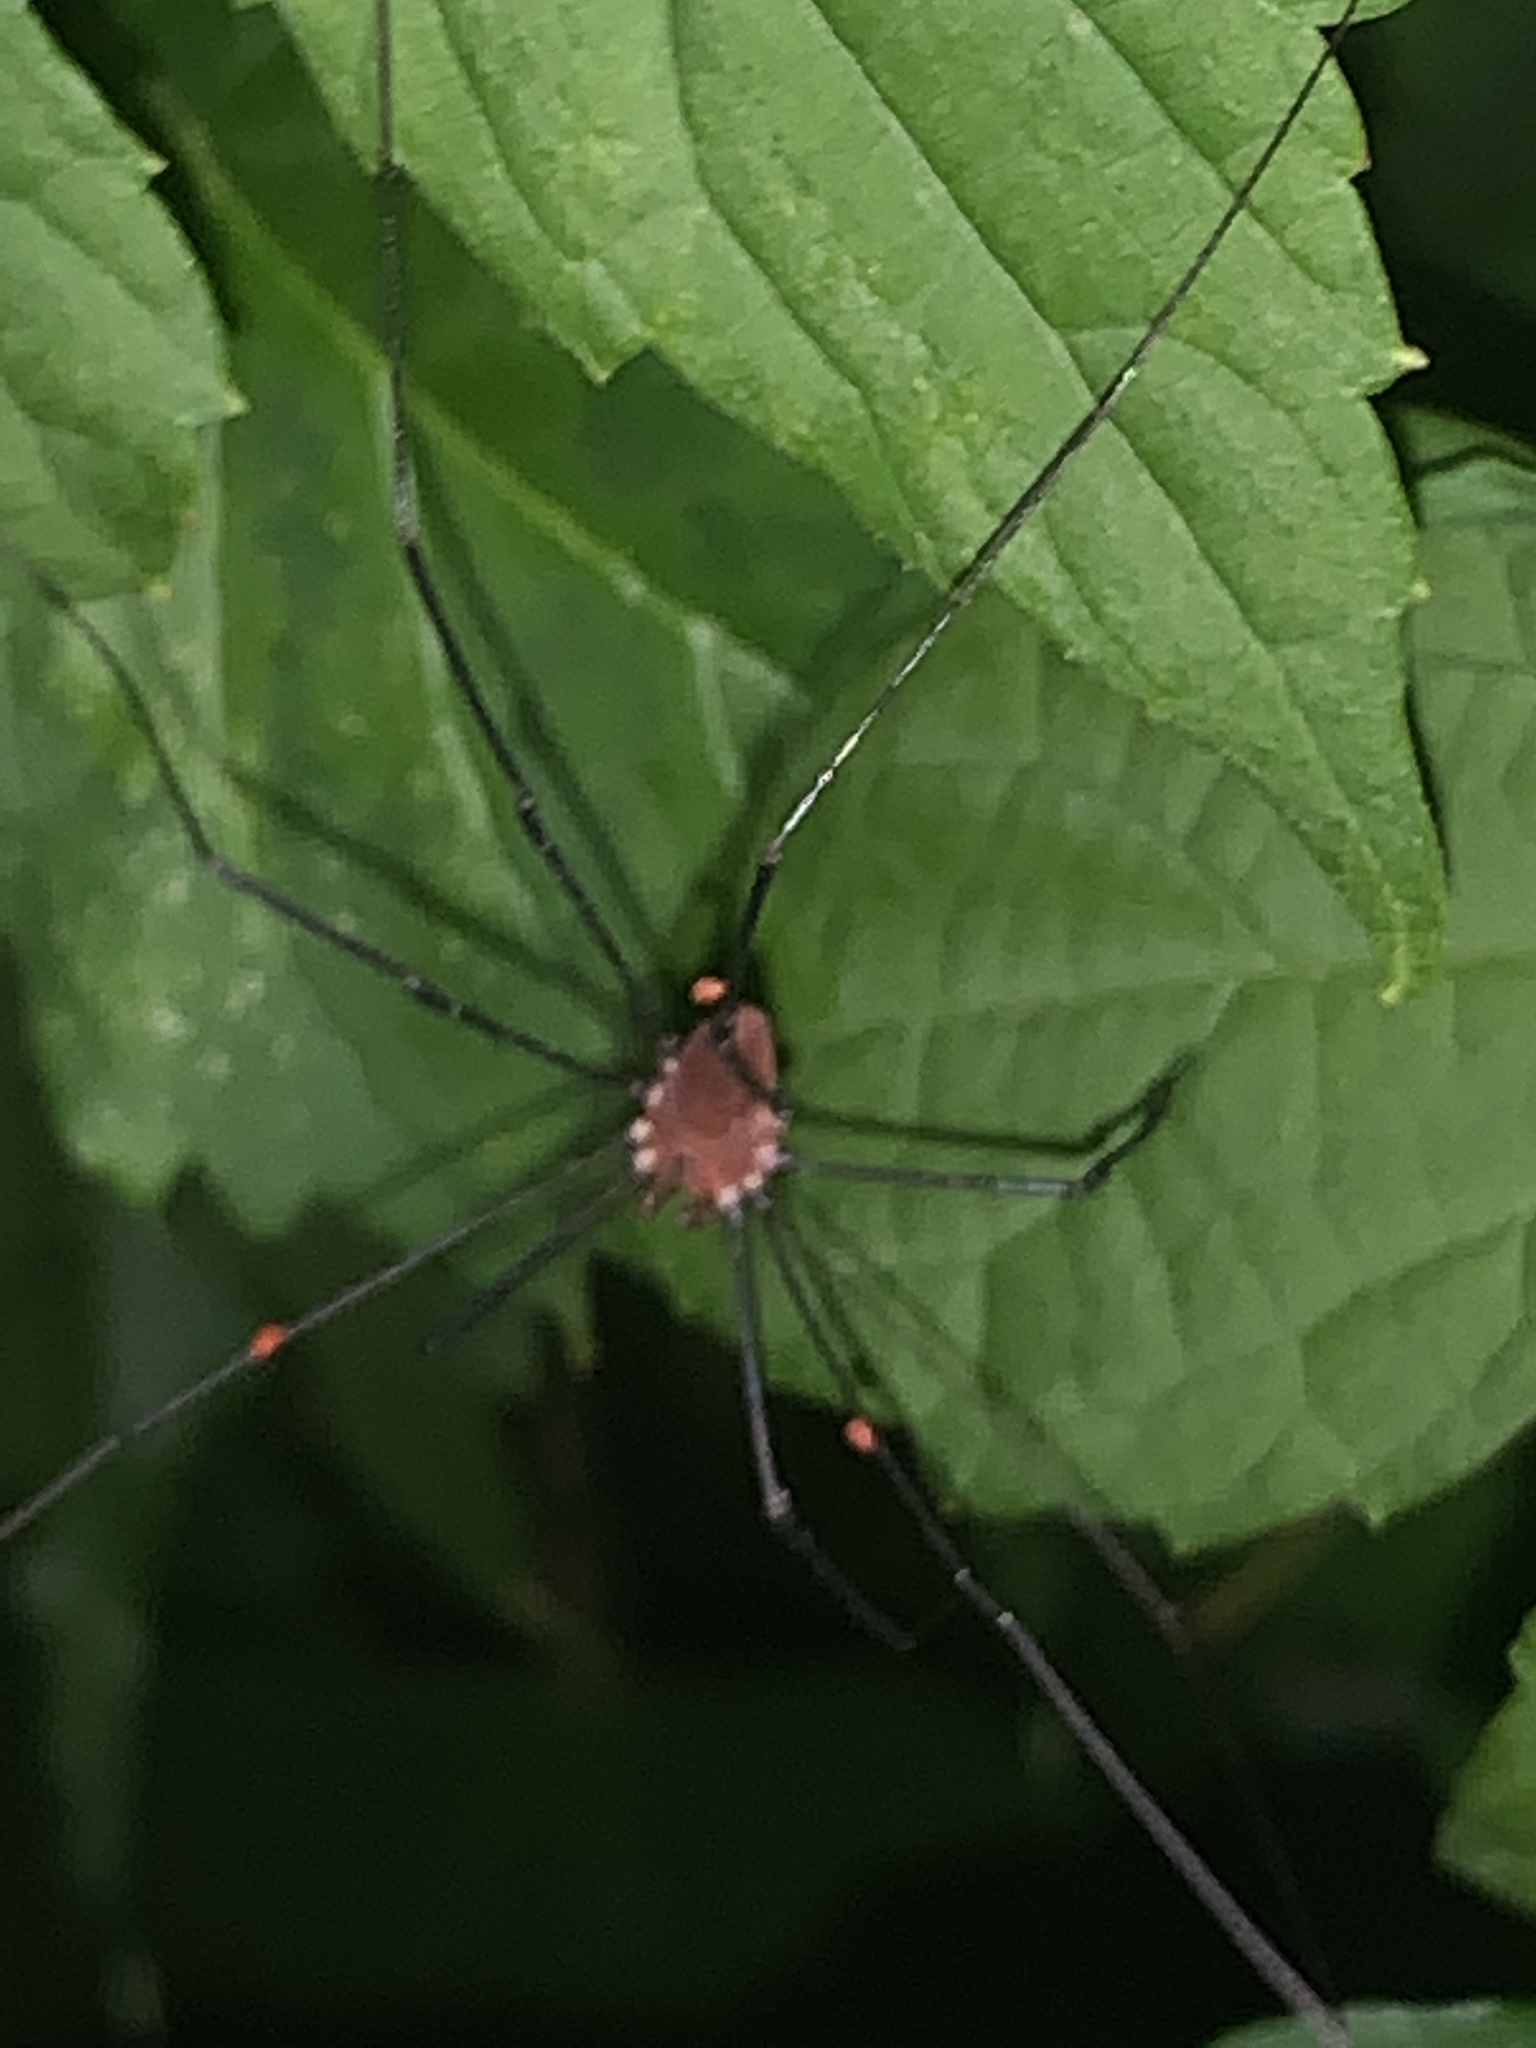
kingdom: Animalia
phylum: Arthropoda
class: Arachnida
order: Opiliones
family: Sclerosomatidae
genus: Leiobunum
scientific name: Leiobunum verrucosum
